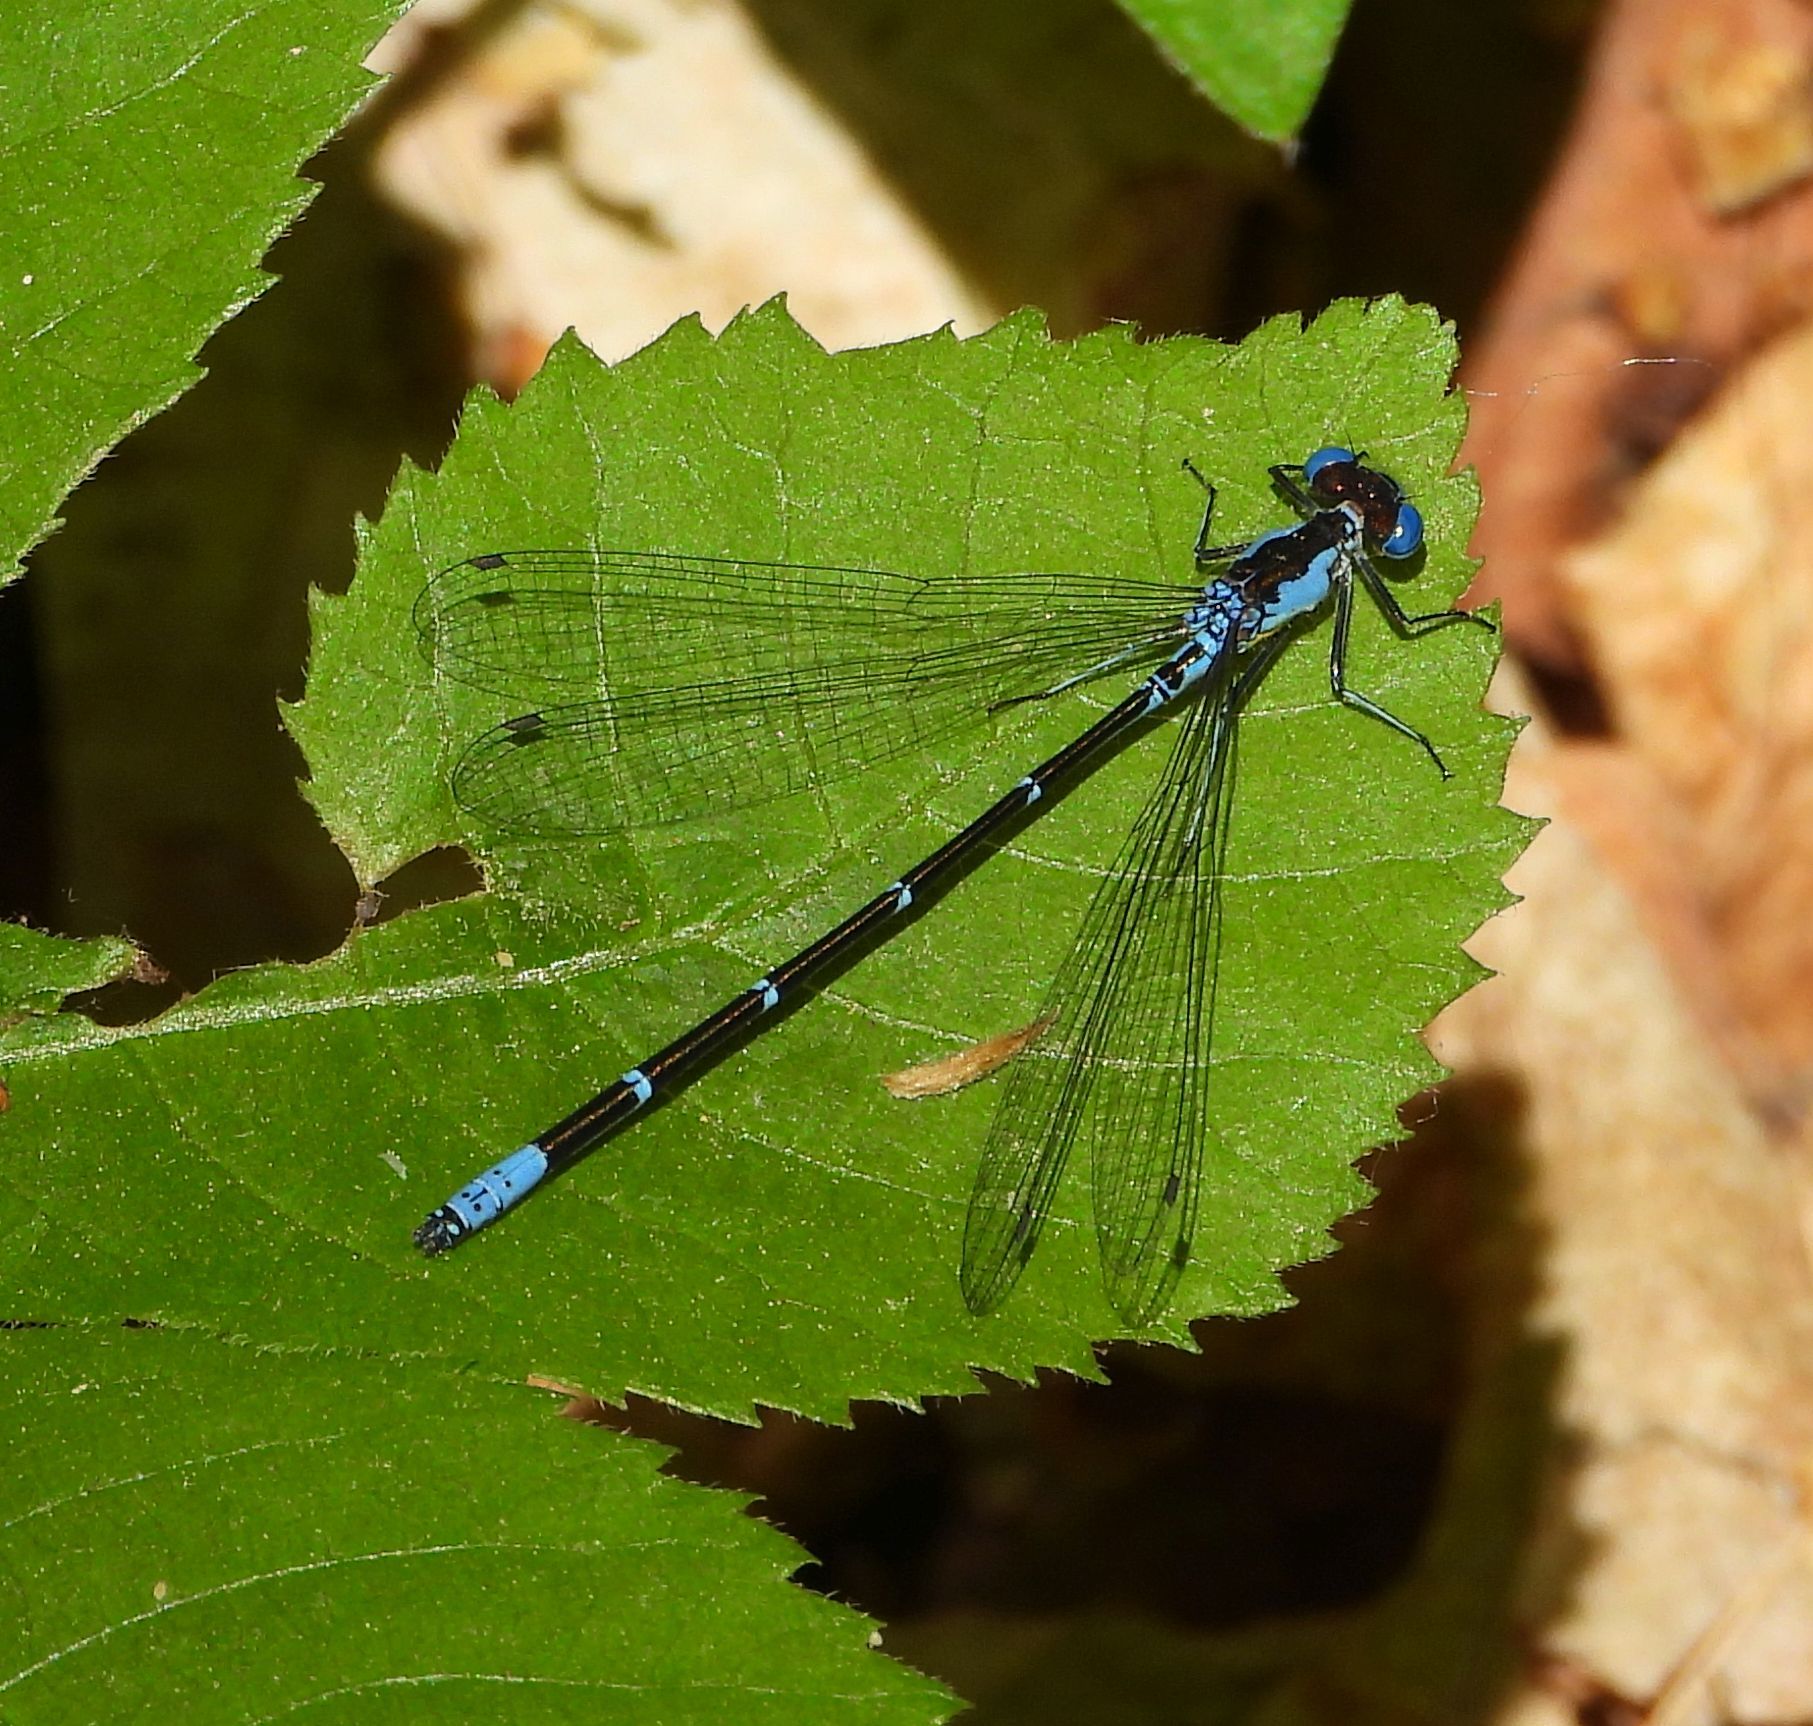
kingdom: Animalia
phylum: Arthropoda
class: Insecta
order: Odonata
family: Coenagrionidae
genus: Chromagrion
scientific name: Chromagrion conditum
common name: Aurora damsel
